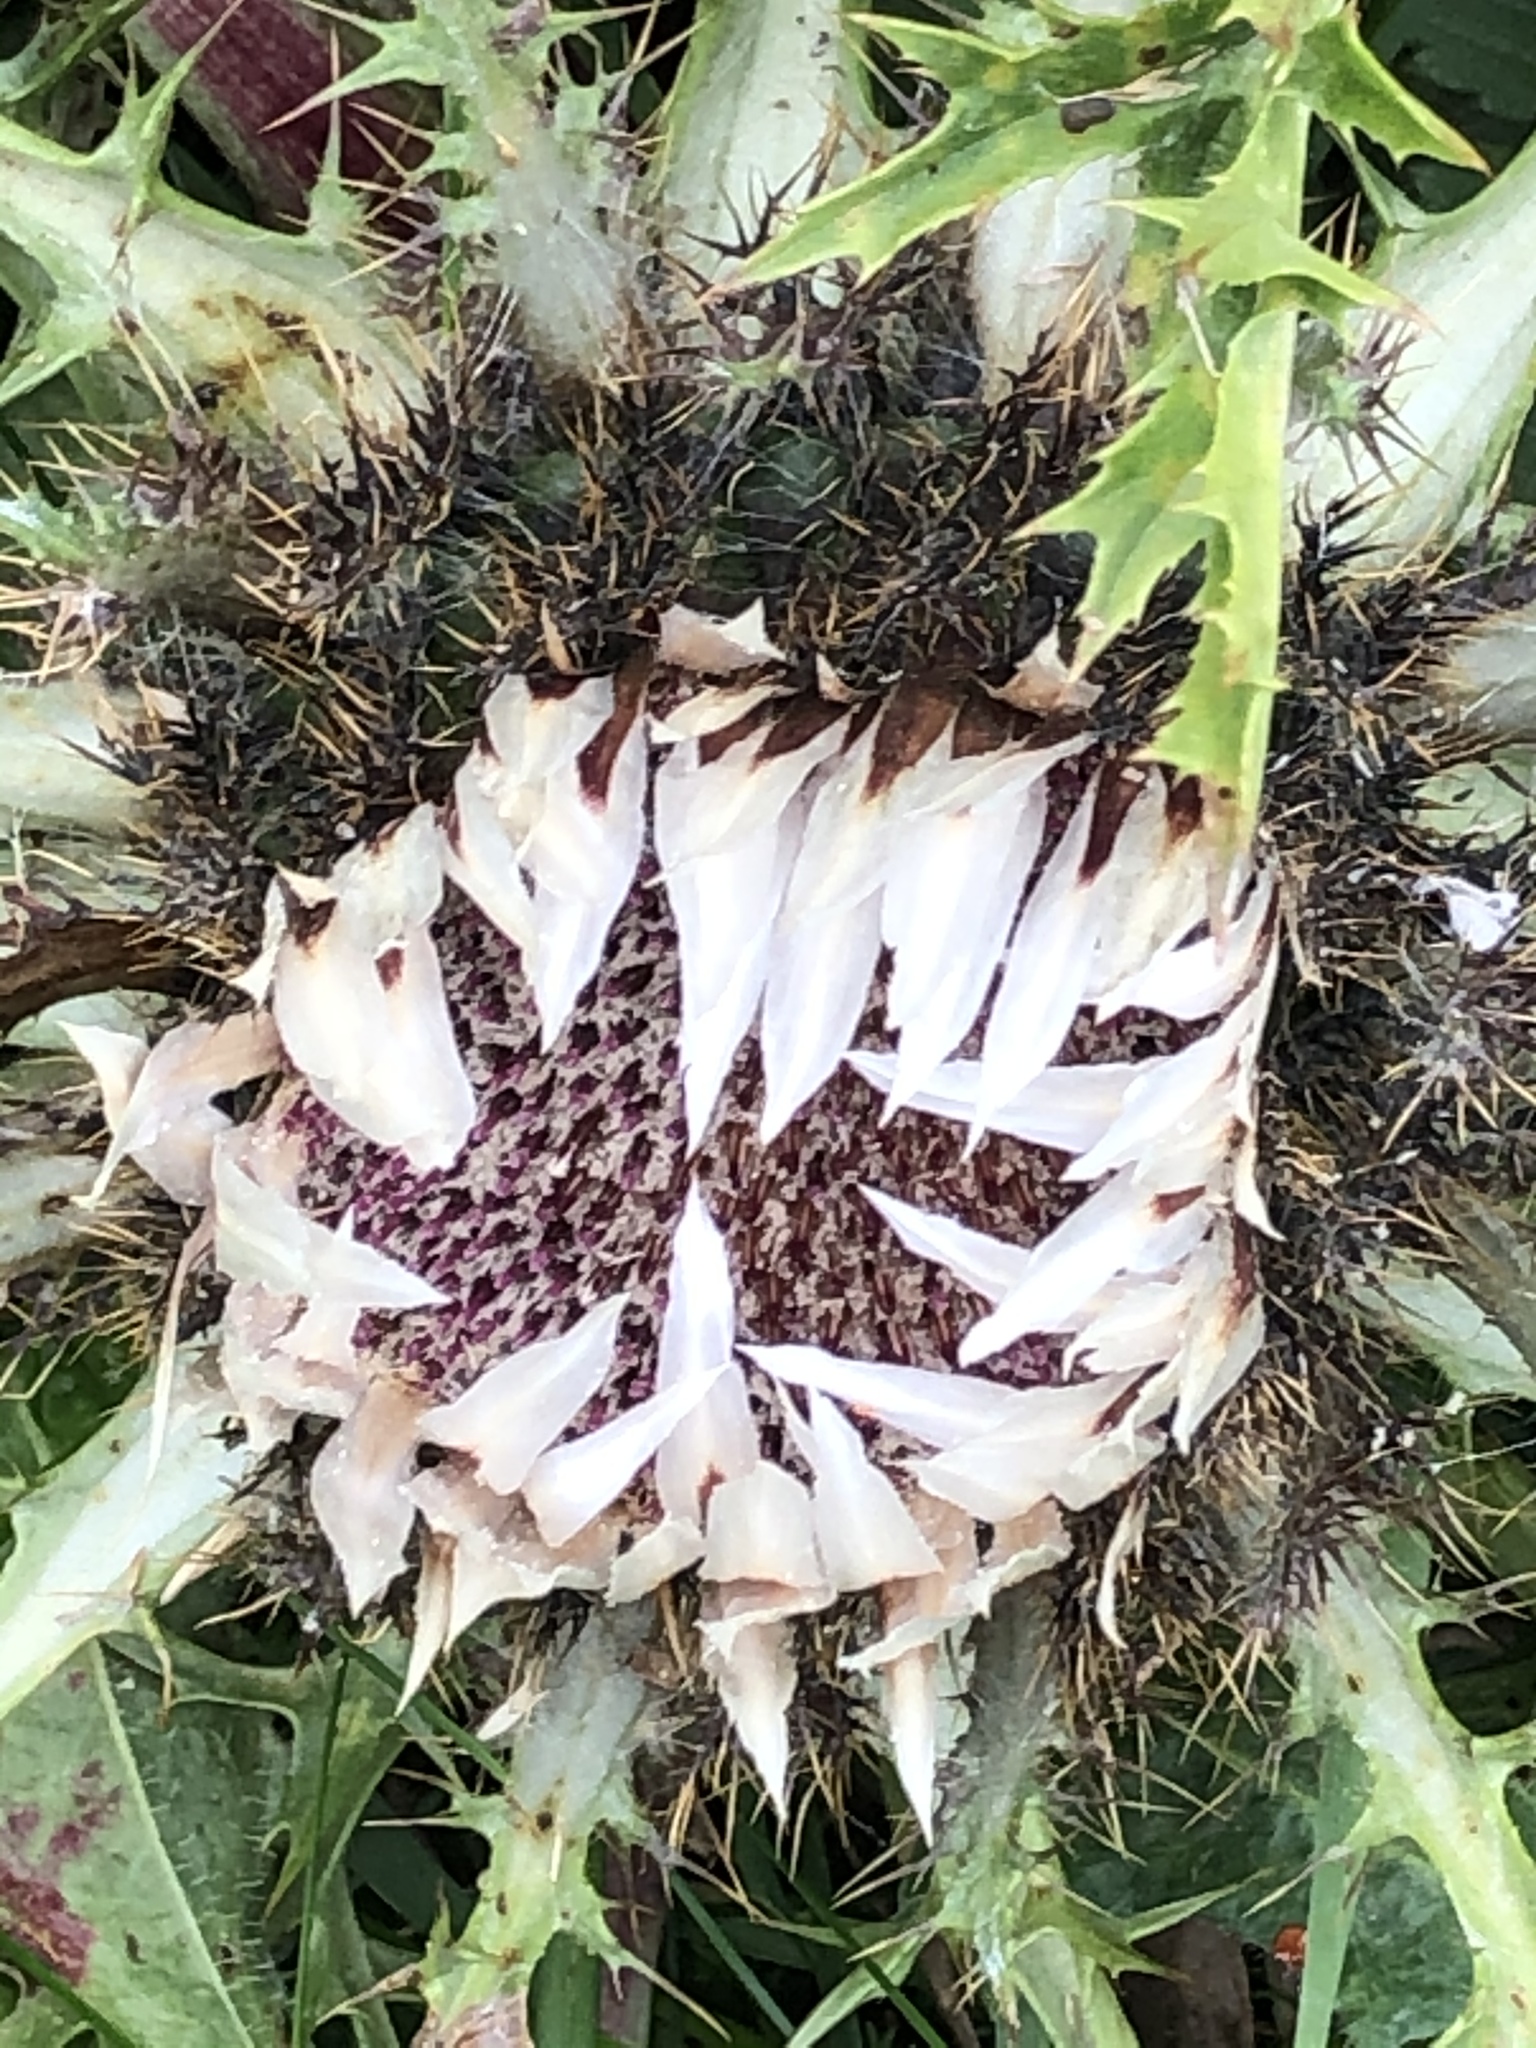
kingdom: Plantae
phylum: Tracheophyta
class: Magnoliopsida
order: Asterales
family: Asteraceae
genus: Carlina
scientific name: Carlina acaulis
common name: Stemless carline thistle
